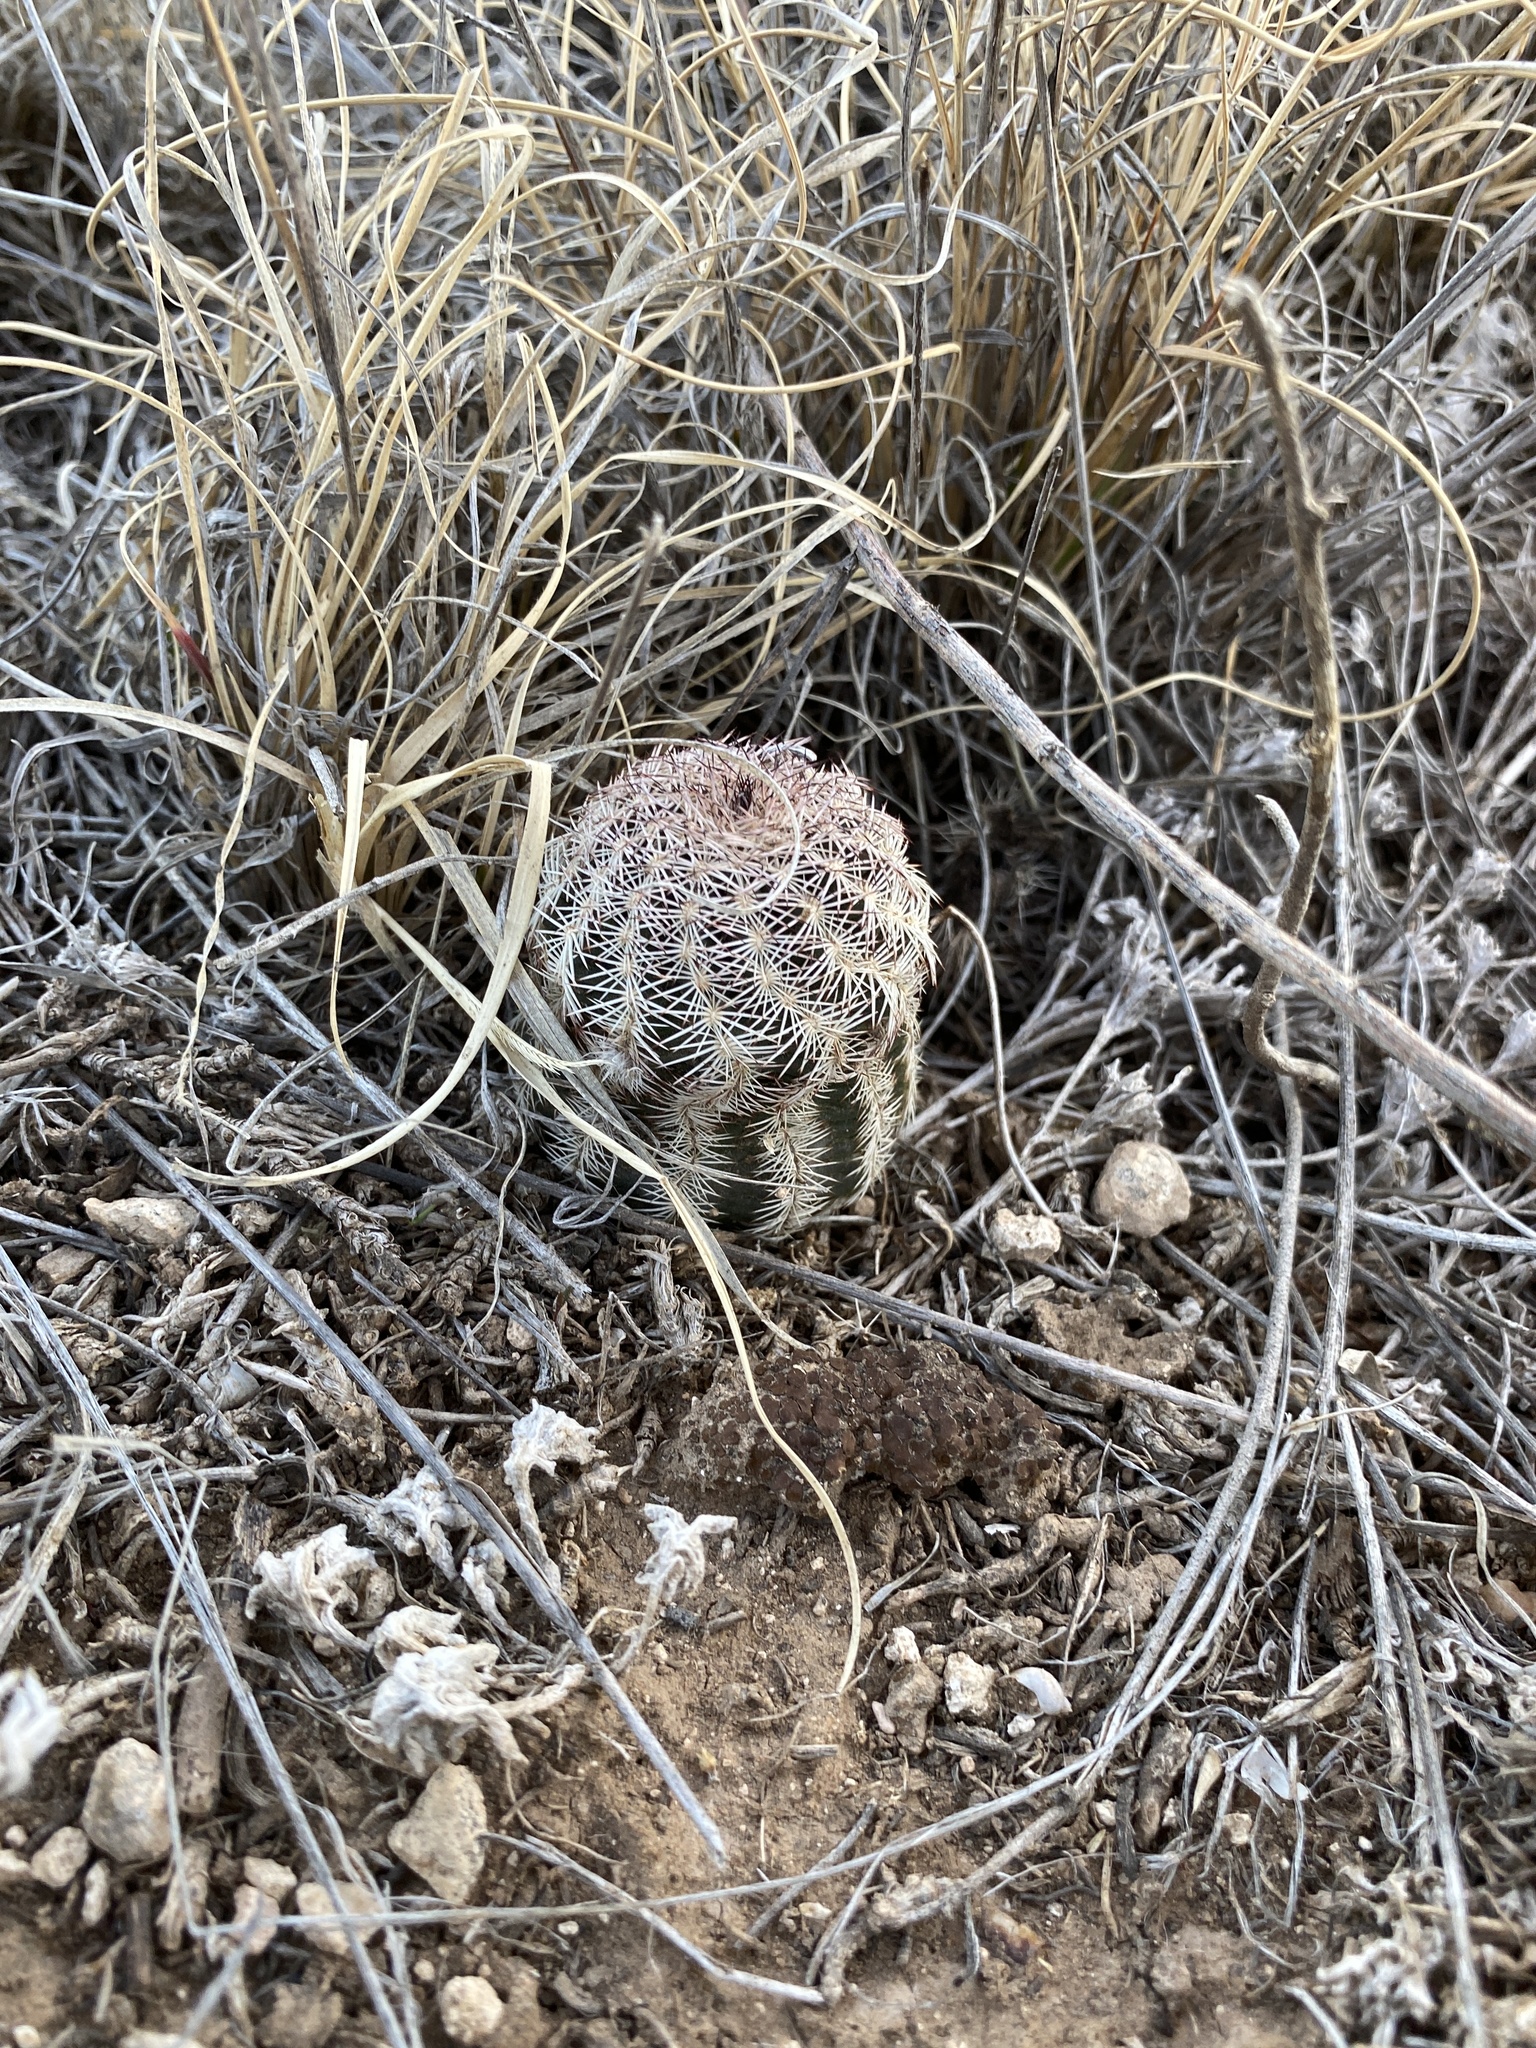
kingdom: Plantae
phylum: Tracheophyta
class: Magnoliopsida
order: Caryophyllales
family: Cactaceae
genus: Echinocereus
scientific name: Echinocereus reichenbachii
